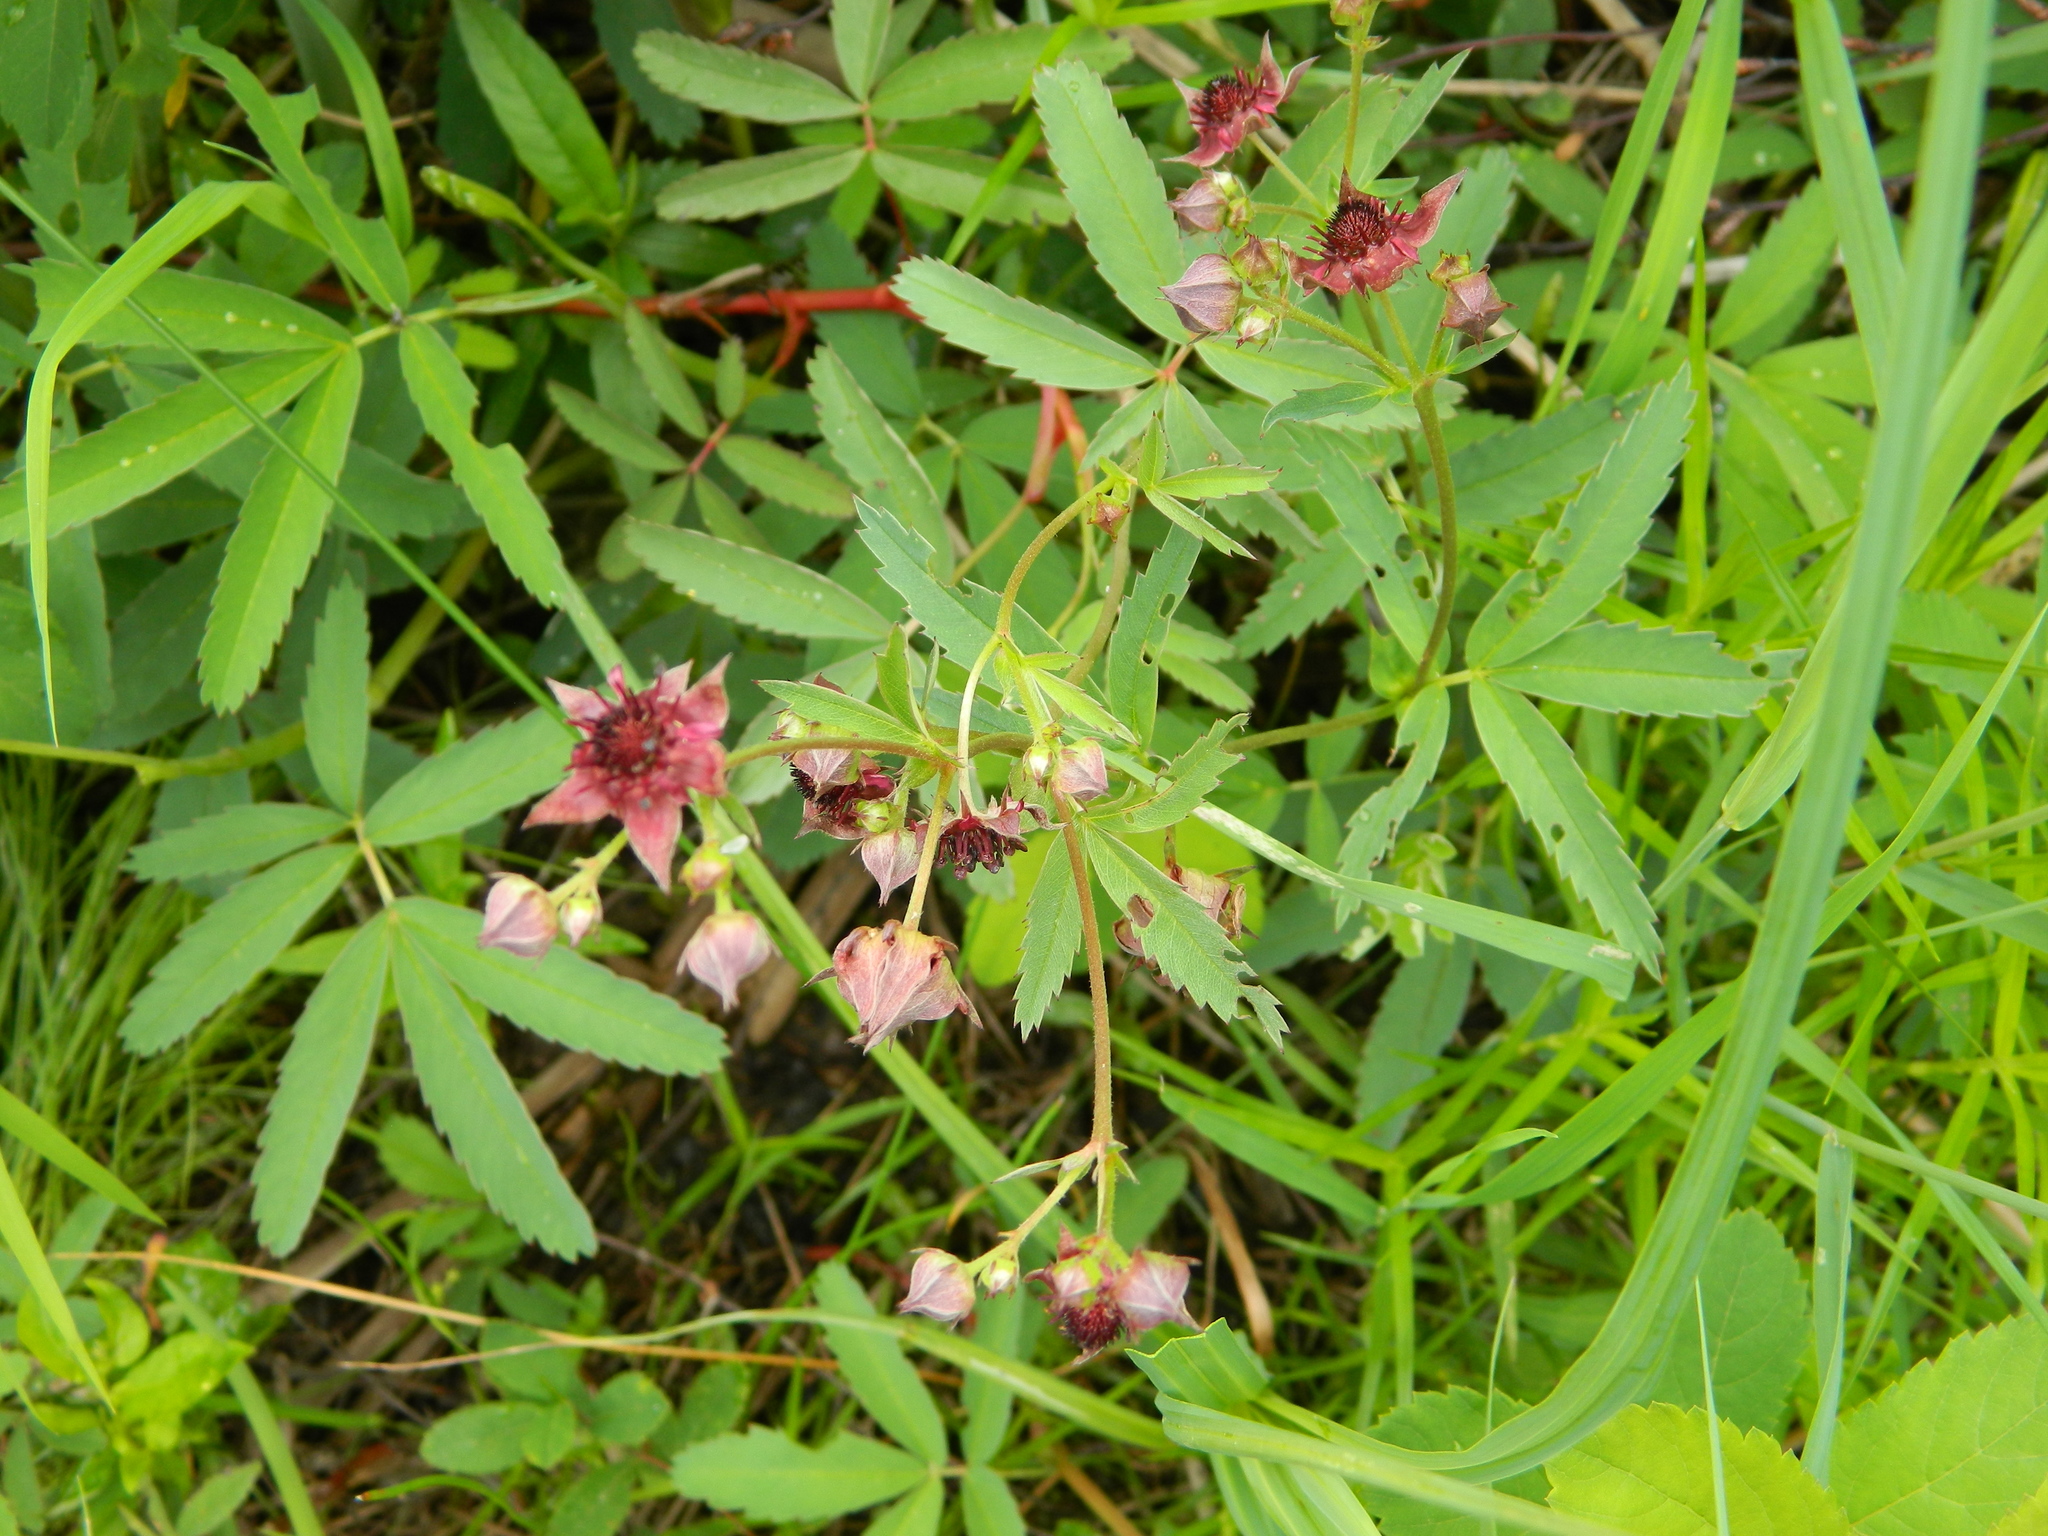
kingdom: Plantae
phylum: Tracheophyta
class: Magnoliopsida
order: Rosales
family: Rosaceae
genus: Comarum
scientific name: Comarum palustre
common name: Marsh cinquefoil
